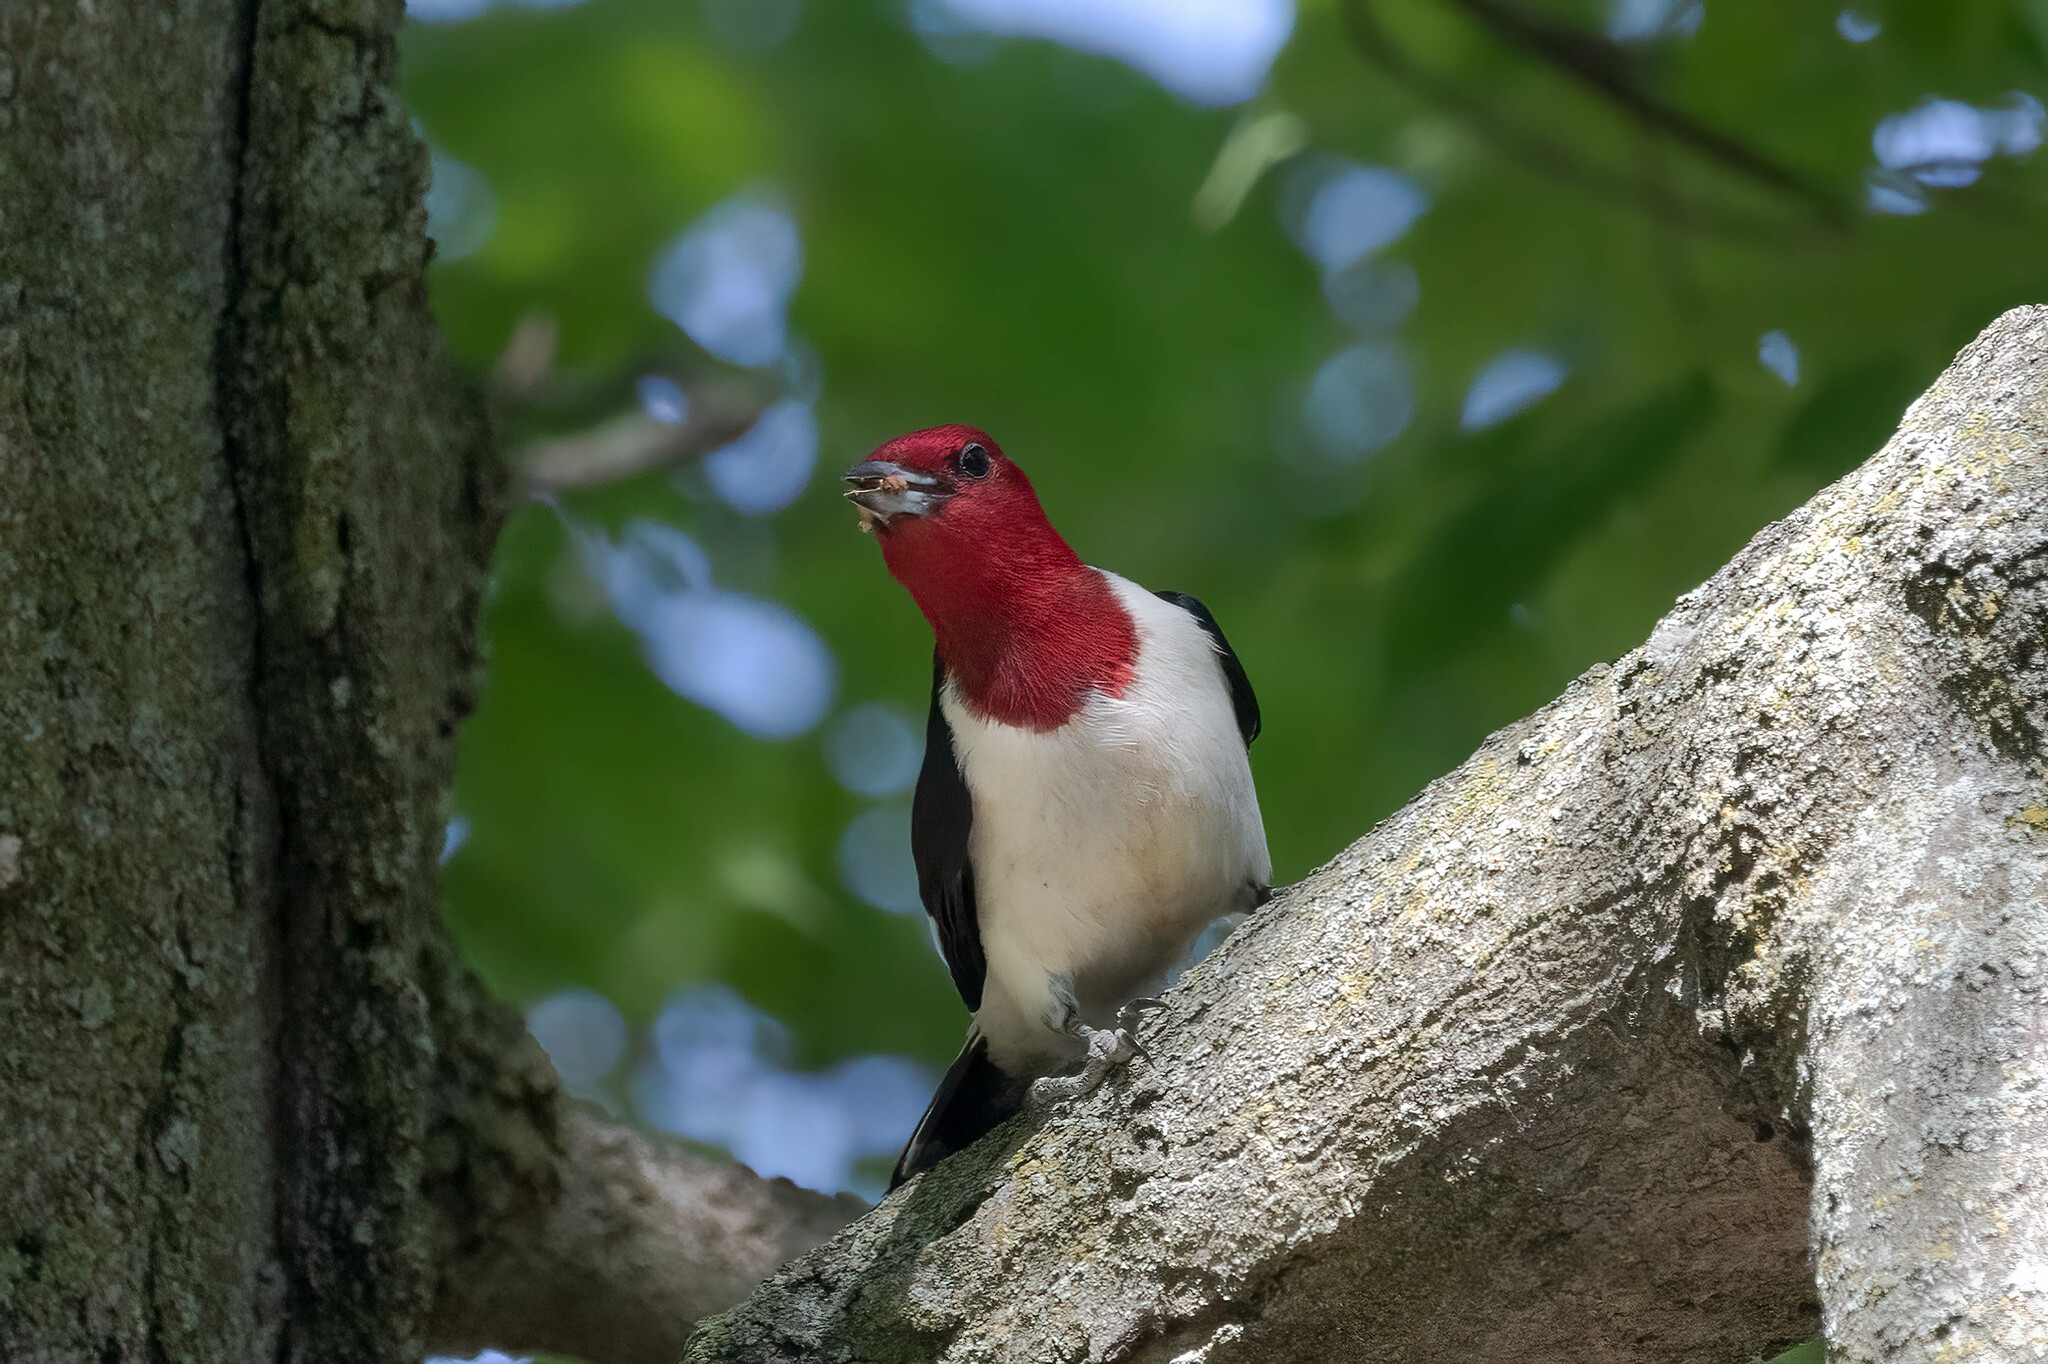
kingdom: Animalia
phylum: Chordata
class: Aves
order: Piciformes
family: Picidae
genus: Melanerpes
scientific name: Melanerpes erythrocephalus
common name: Red-headed woodpecker
